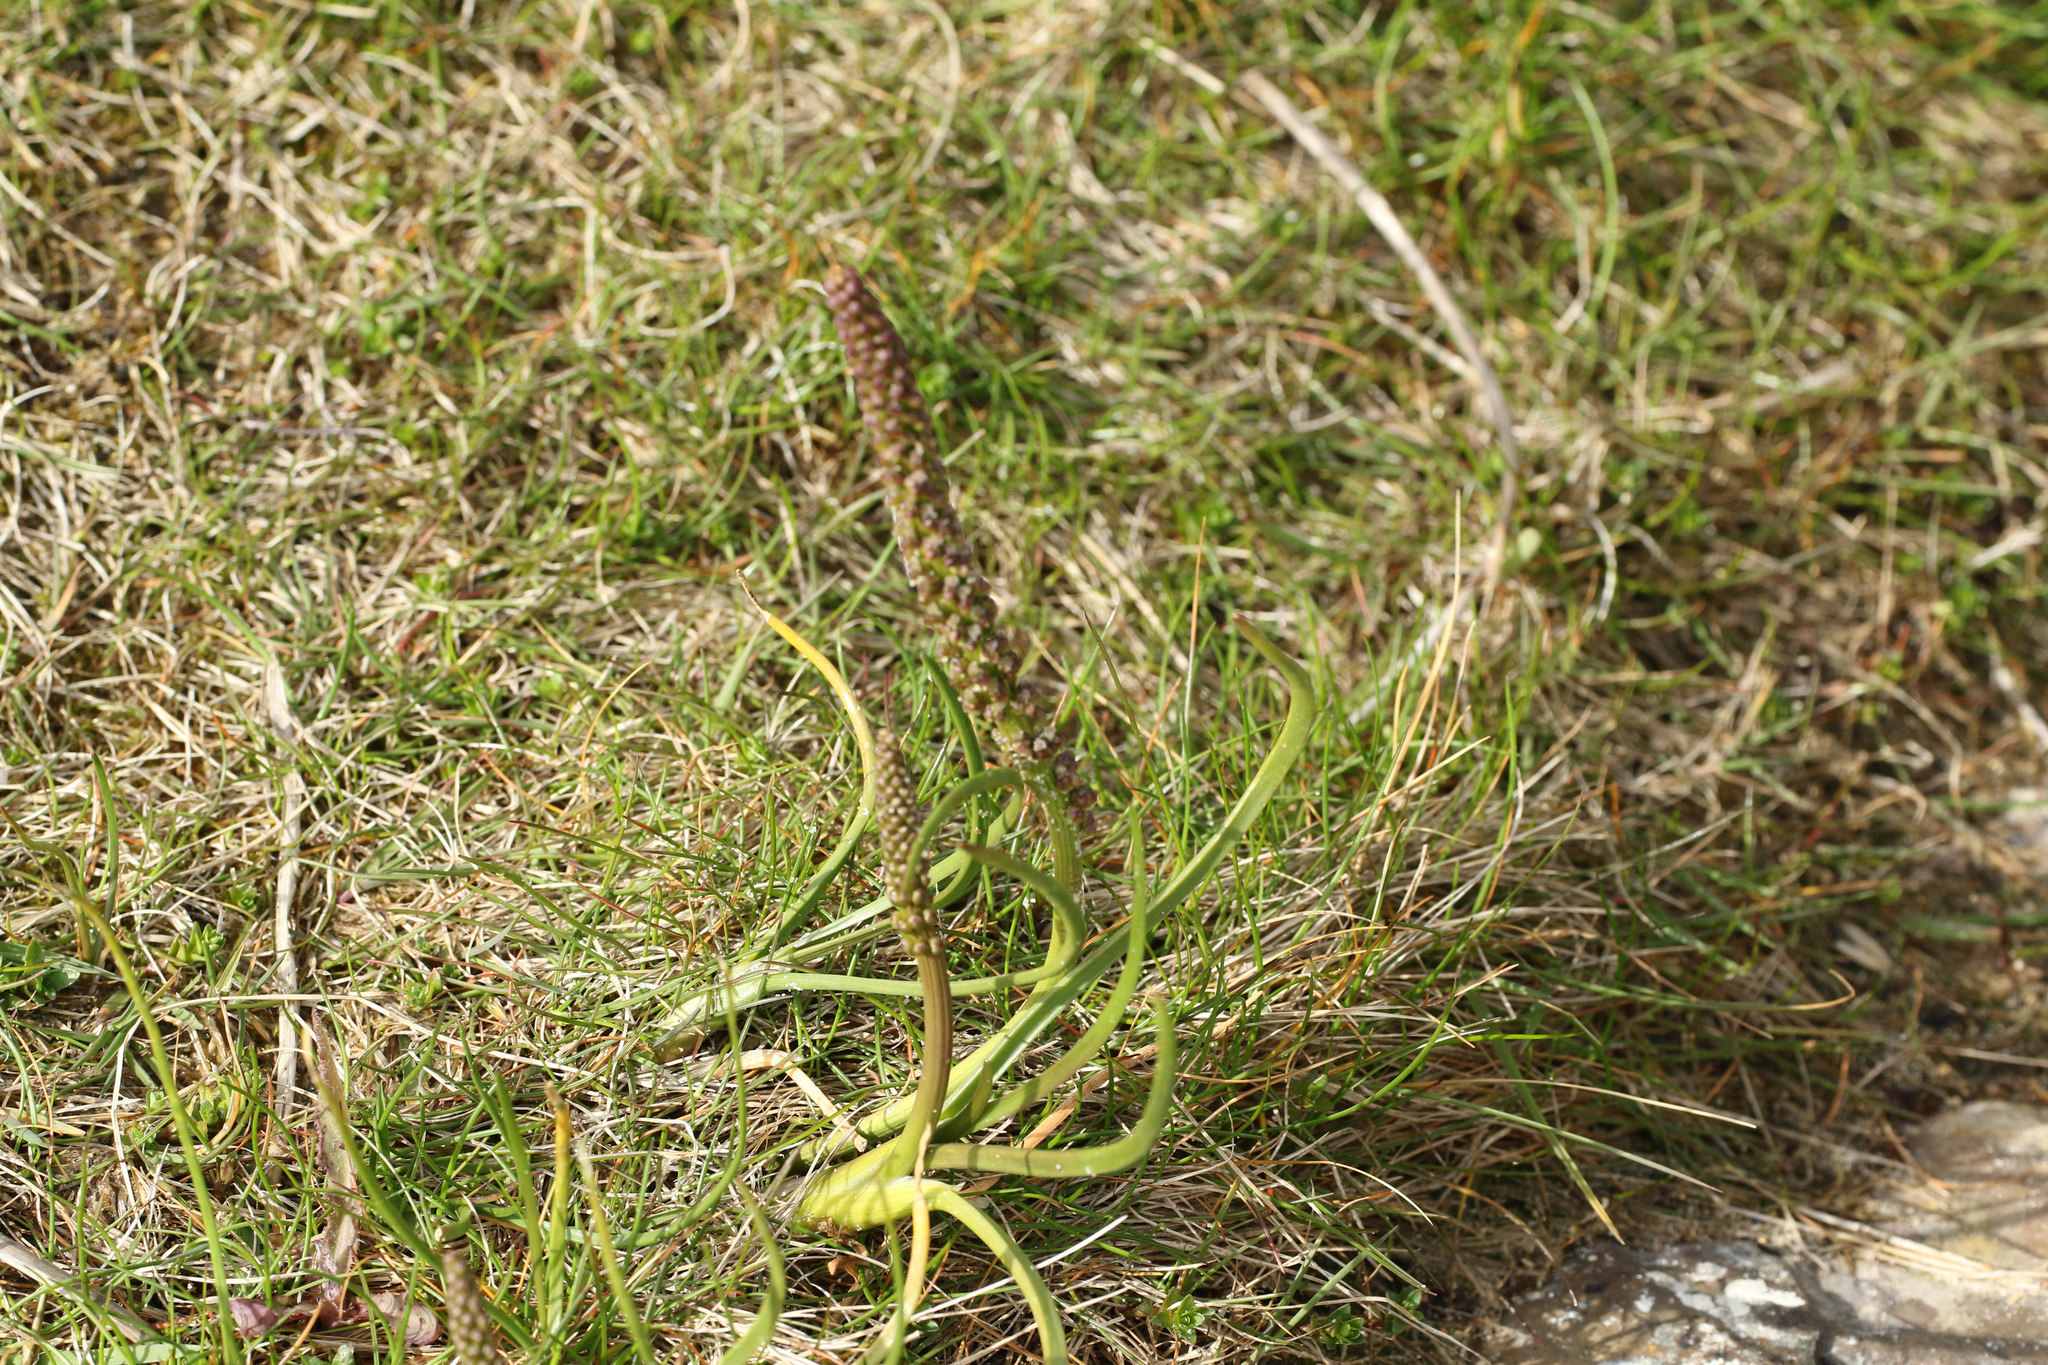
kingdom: Plantae
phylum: Tracheophyta
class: Magnoliopsida
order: Lamiales
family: Plantaginaceae
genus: Plantago
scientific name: Plantago maritima
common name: Sea plantain
